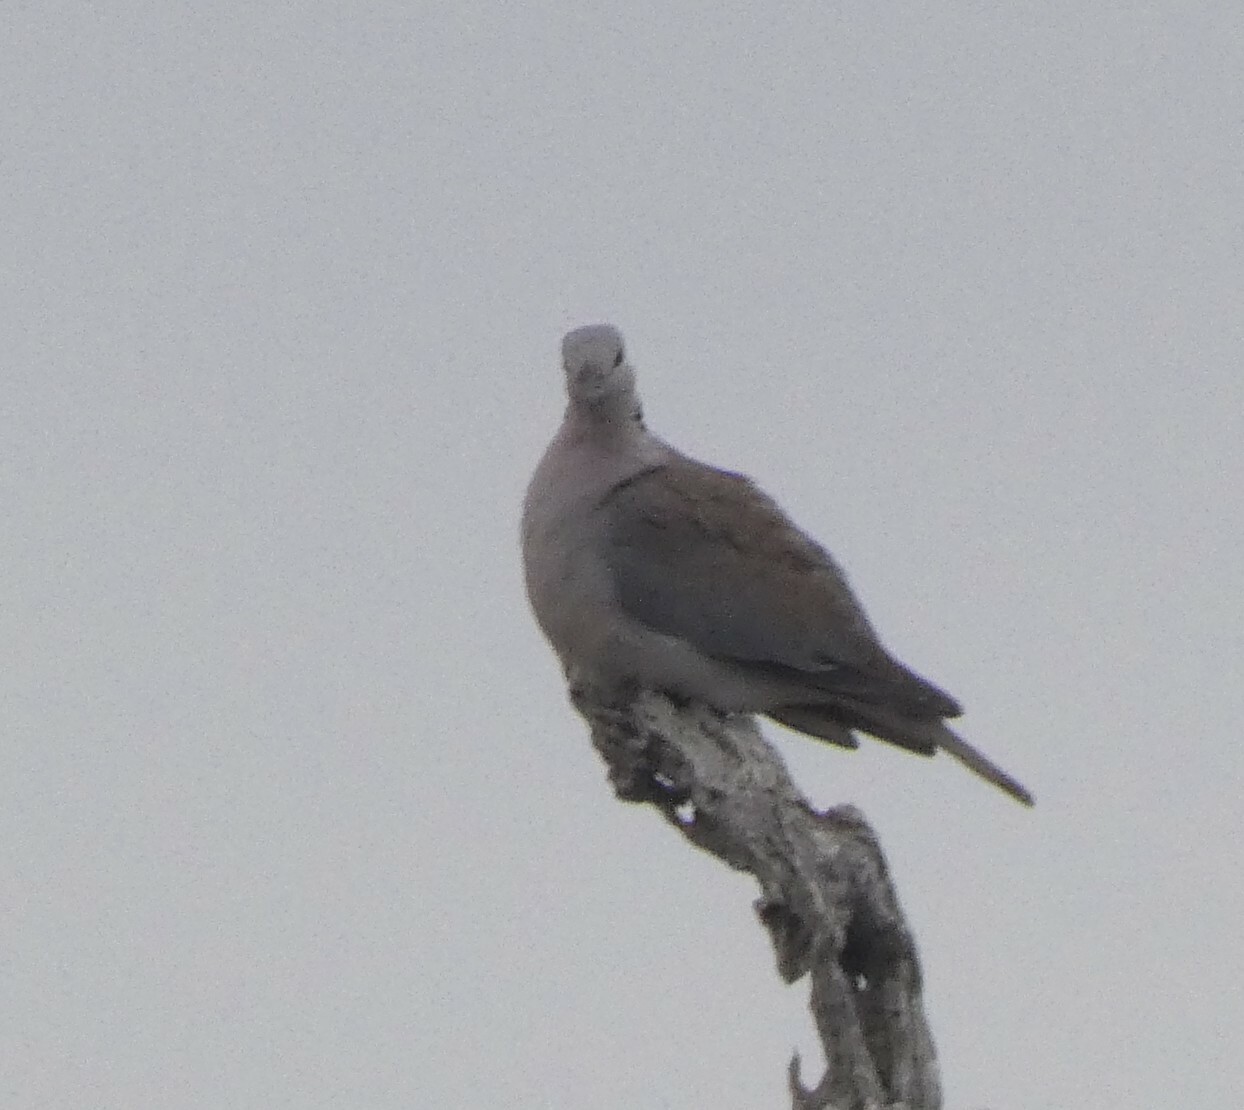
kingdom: Animalia
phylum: Chordata
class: Aves
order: Columbiformes
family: Columbidae
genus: Streptopelia
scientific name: Streptopelia capicola
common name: Ring-necked dove
